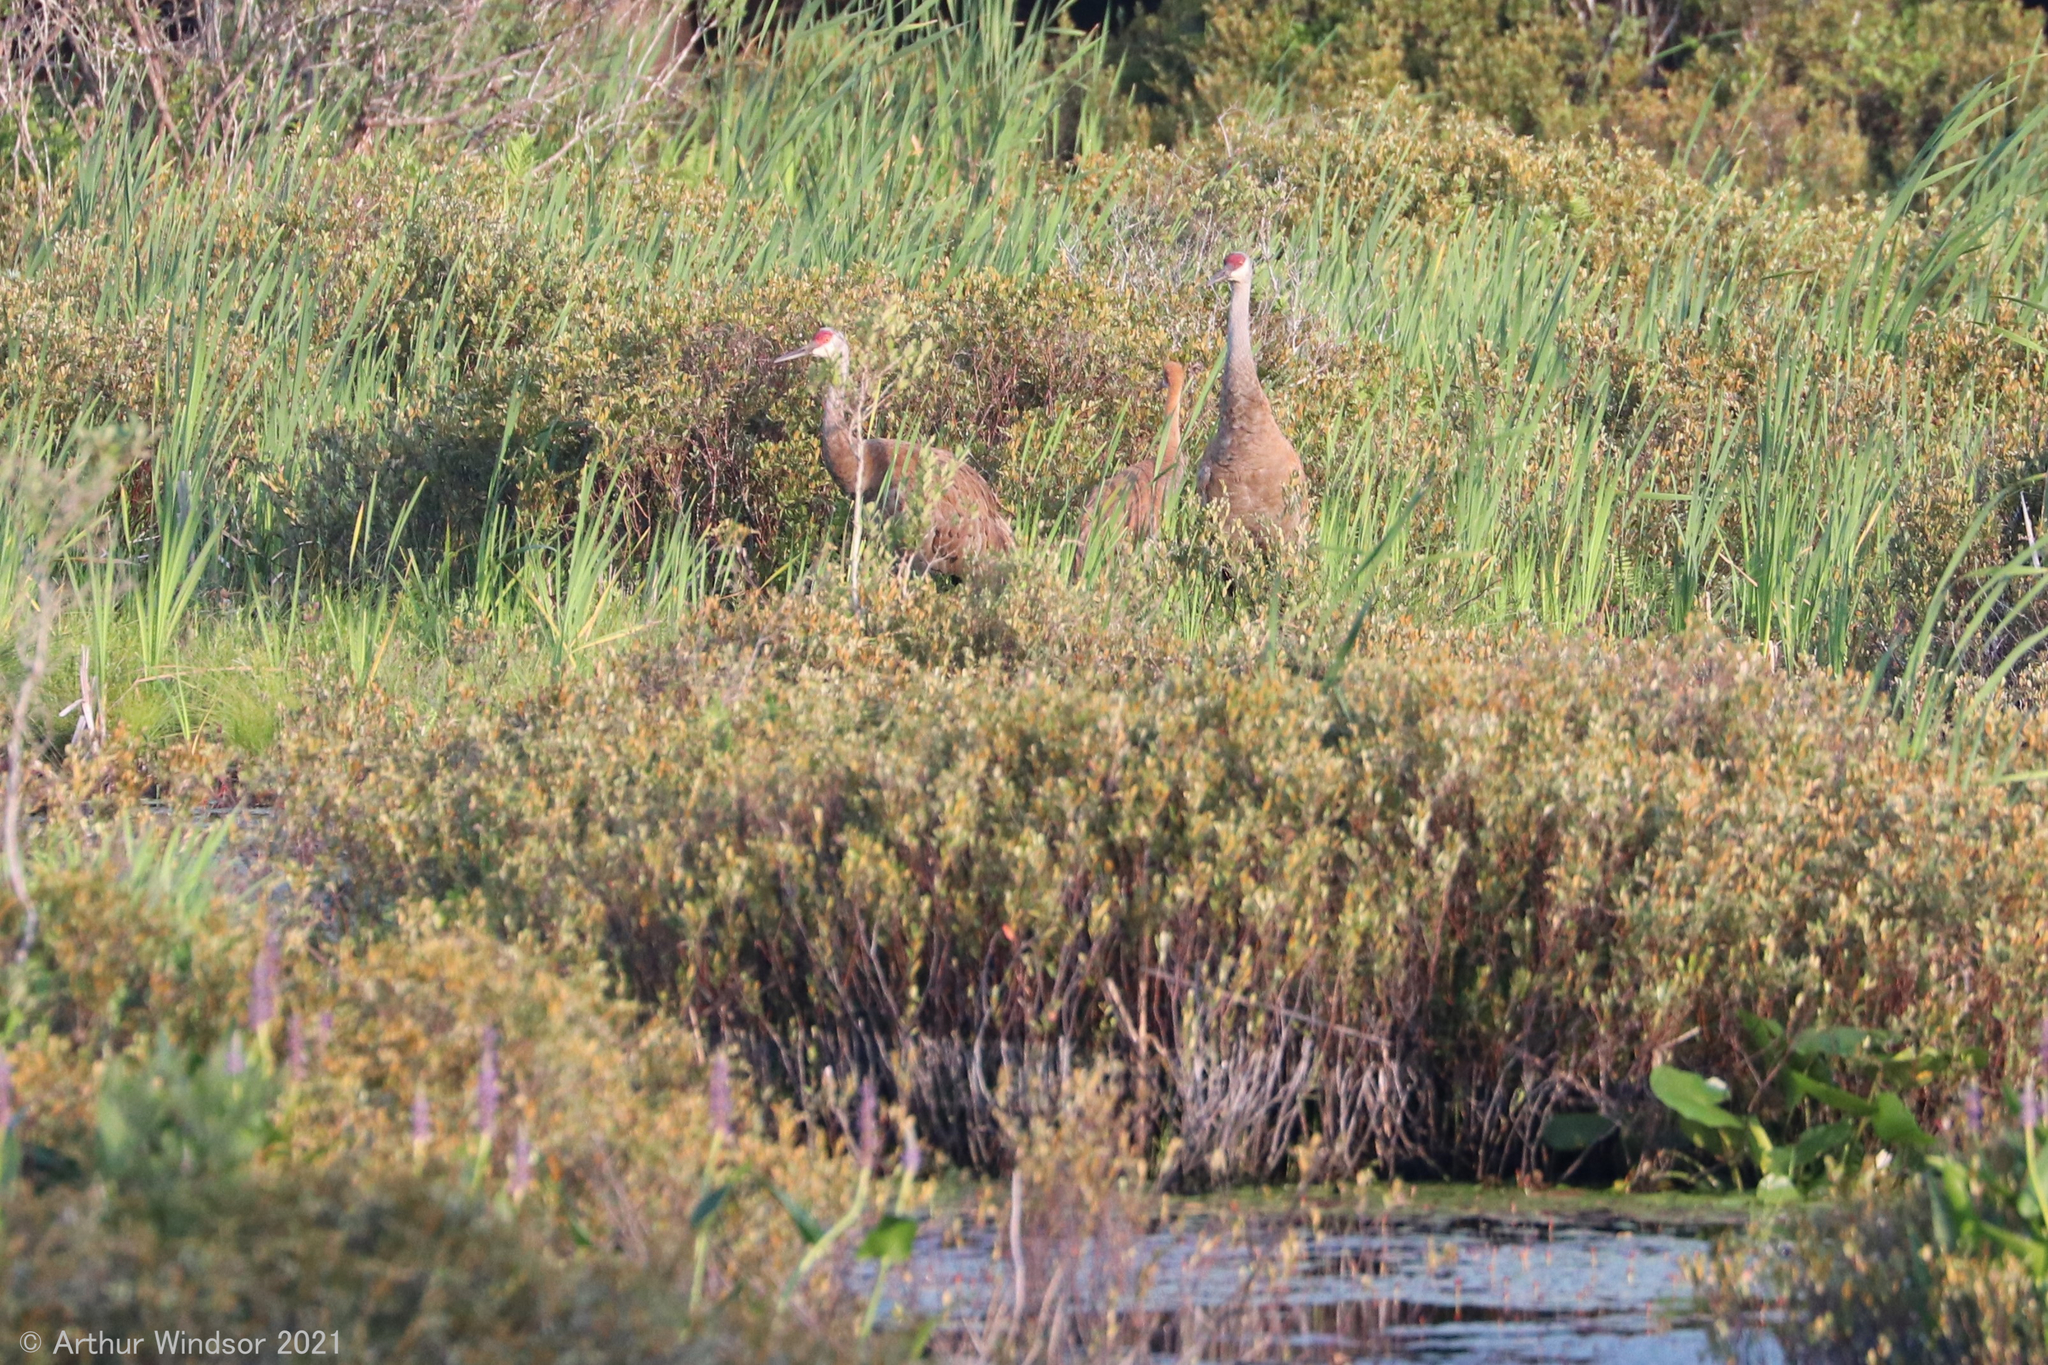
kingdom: Animalia
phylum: Chordata
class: Aves
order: Gruiformes
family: Gruidae
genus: Grus
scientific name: Grus canadensis
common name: Sandhill crane
